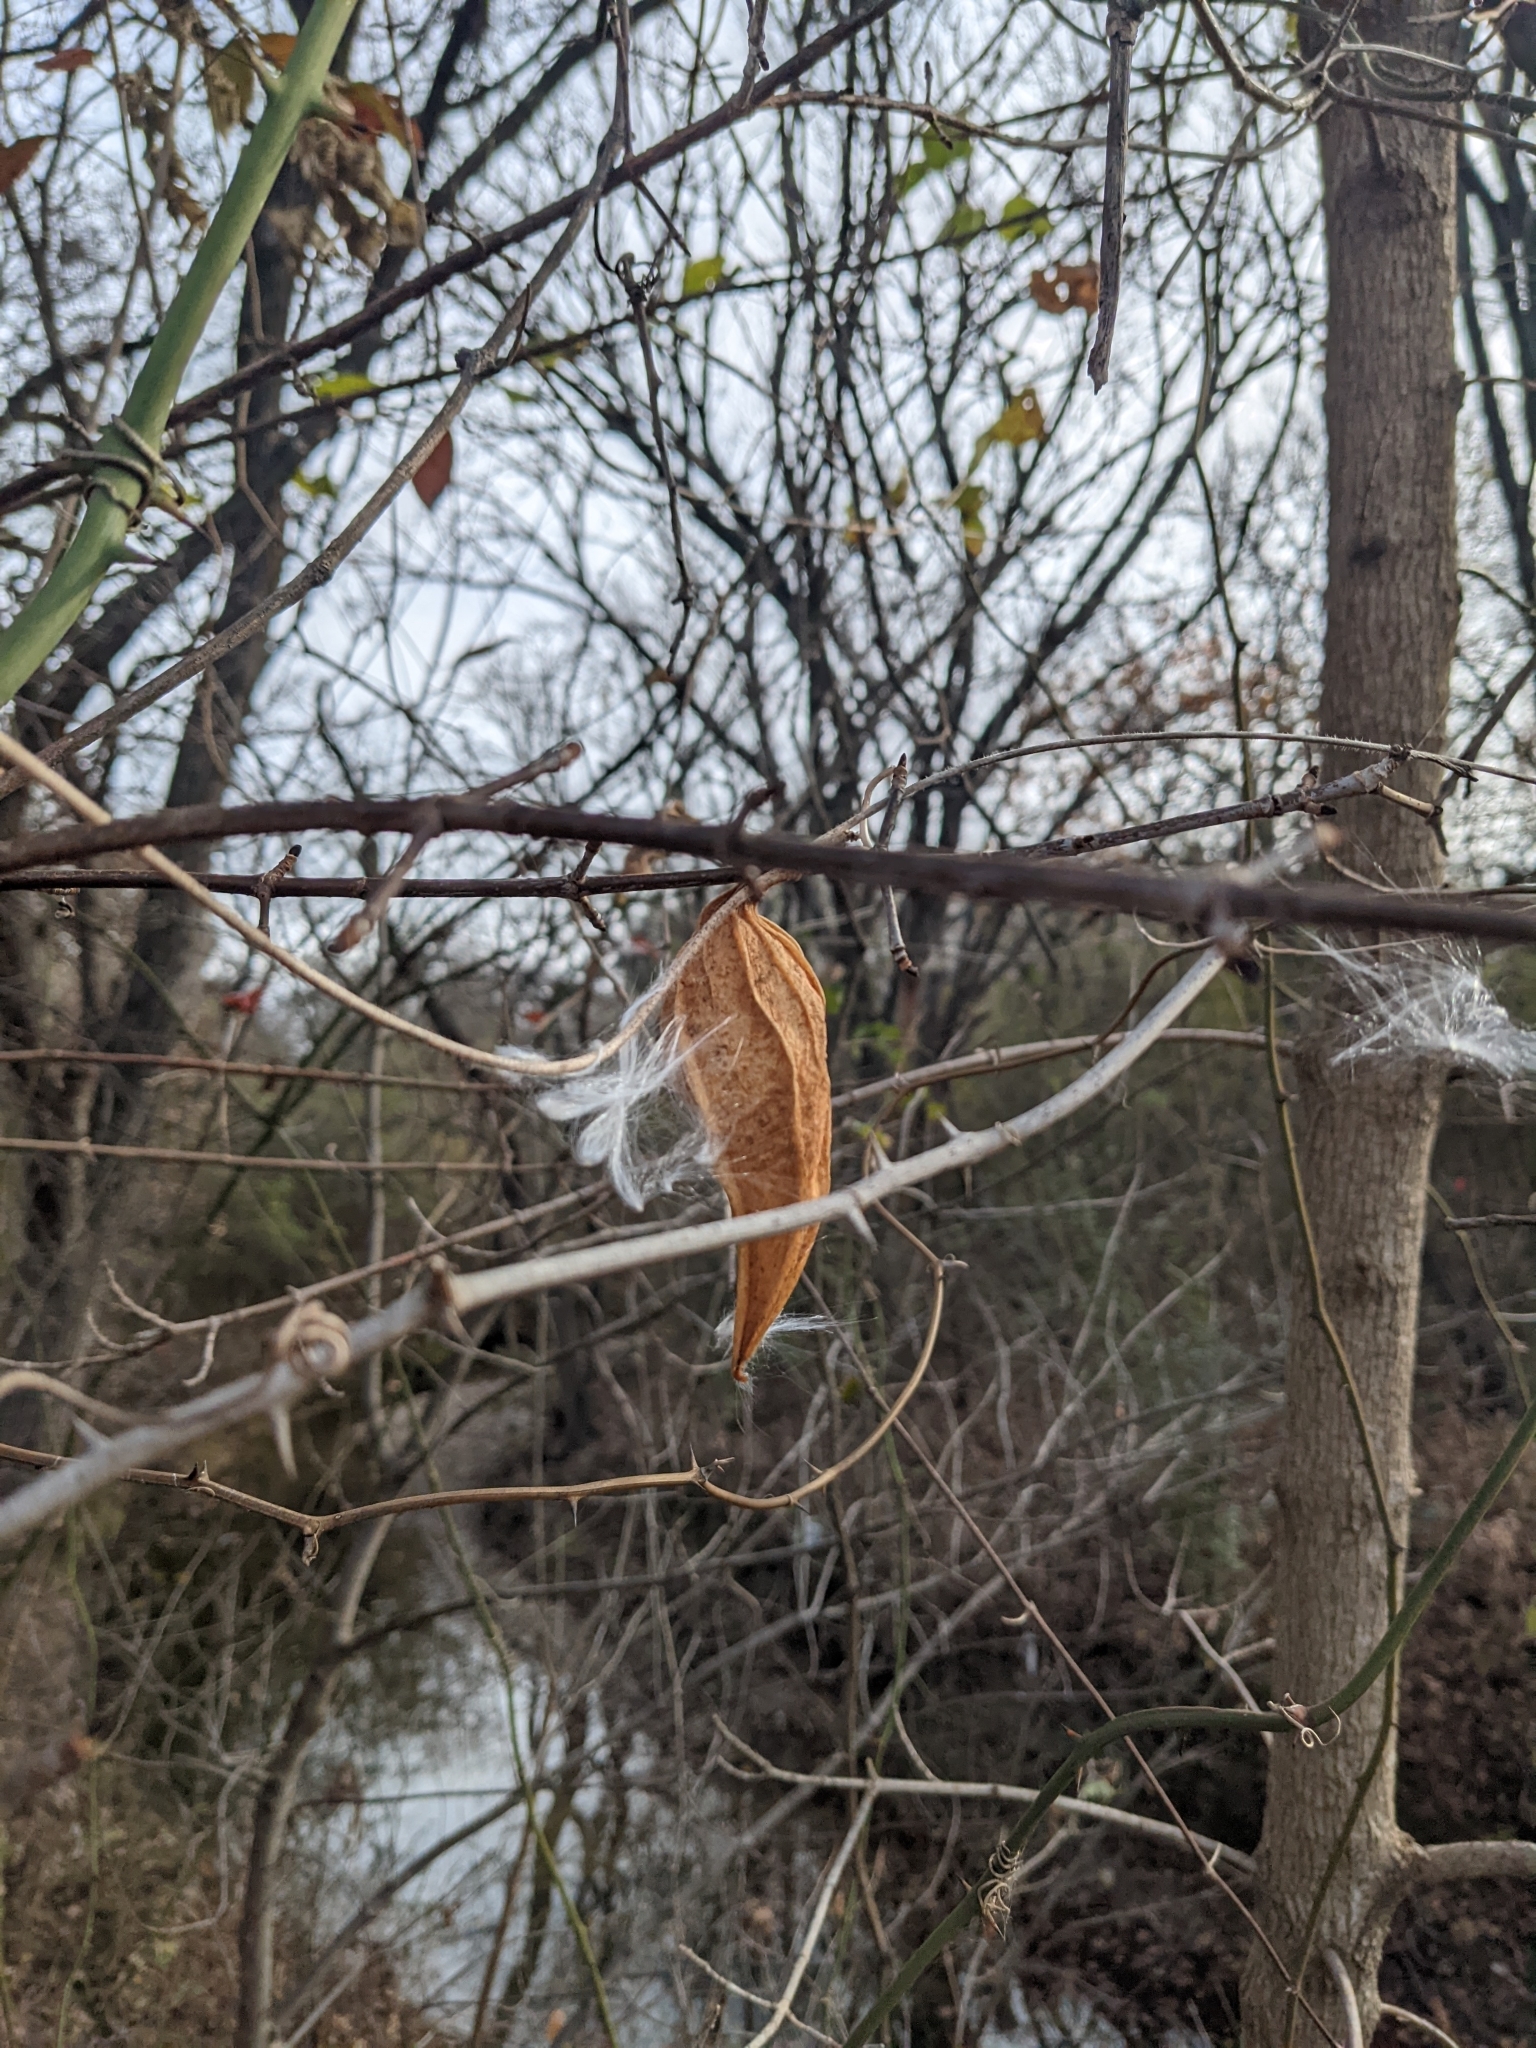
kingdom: Plantae
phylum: Tracheophyta
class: Magnoliopsida
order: Gentianales
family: Apocynaceae
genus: Gonolobus
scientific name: Gonolobus suberosus
